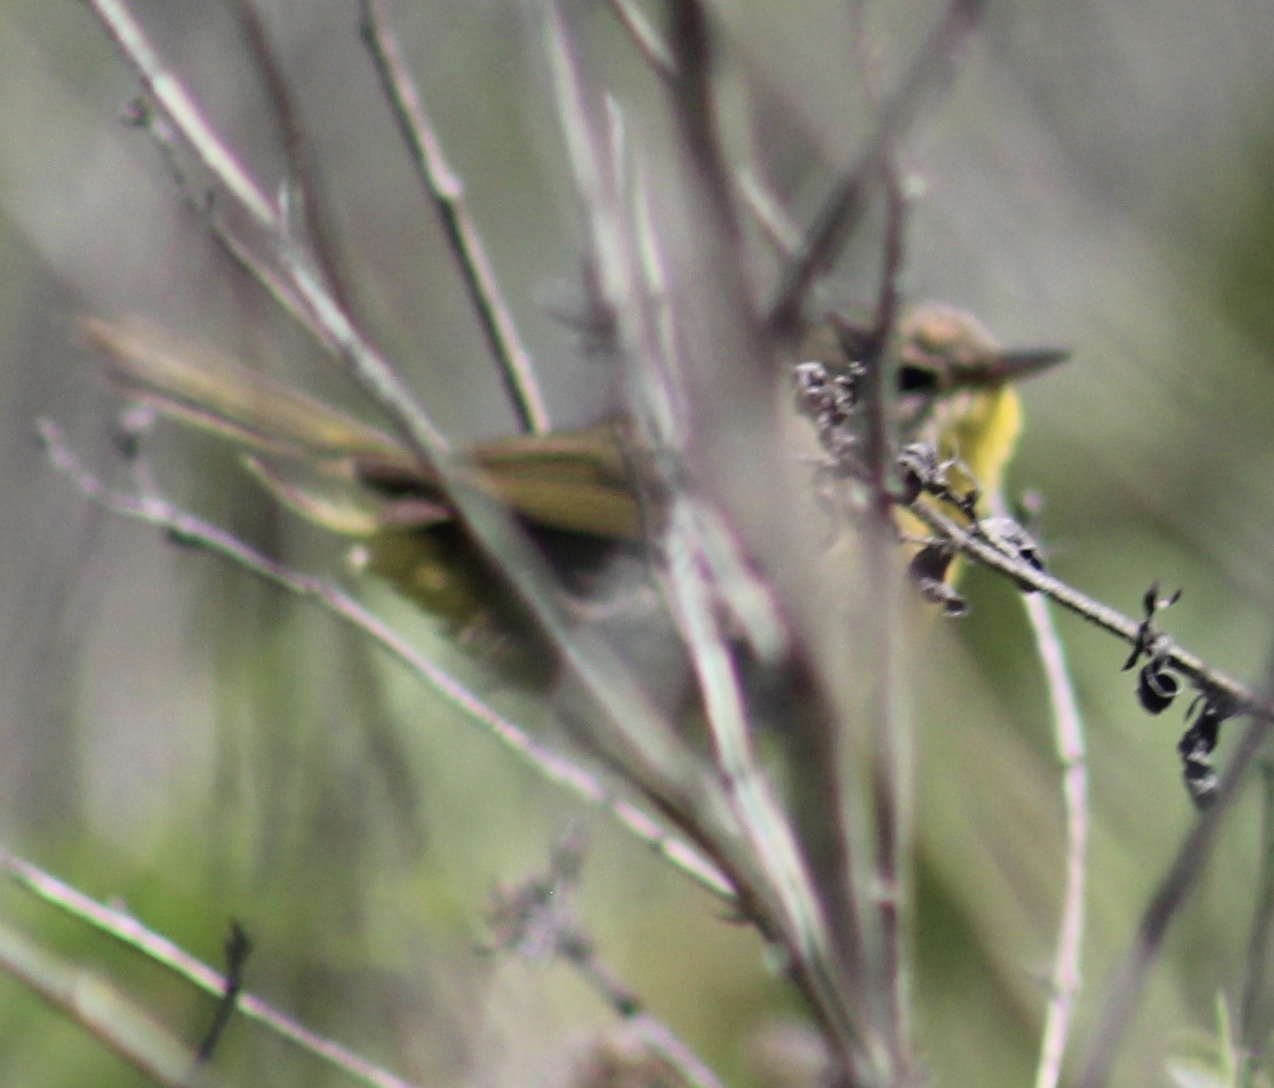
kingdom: Animalia
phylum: Chordata
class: Aves
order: Passeriformes
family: Parulidae
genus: Geothlypis
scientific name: Geothlypis trichas
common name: Common yellowthroat
